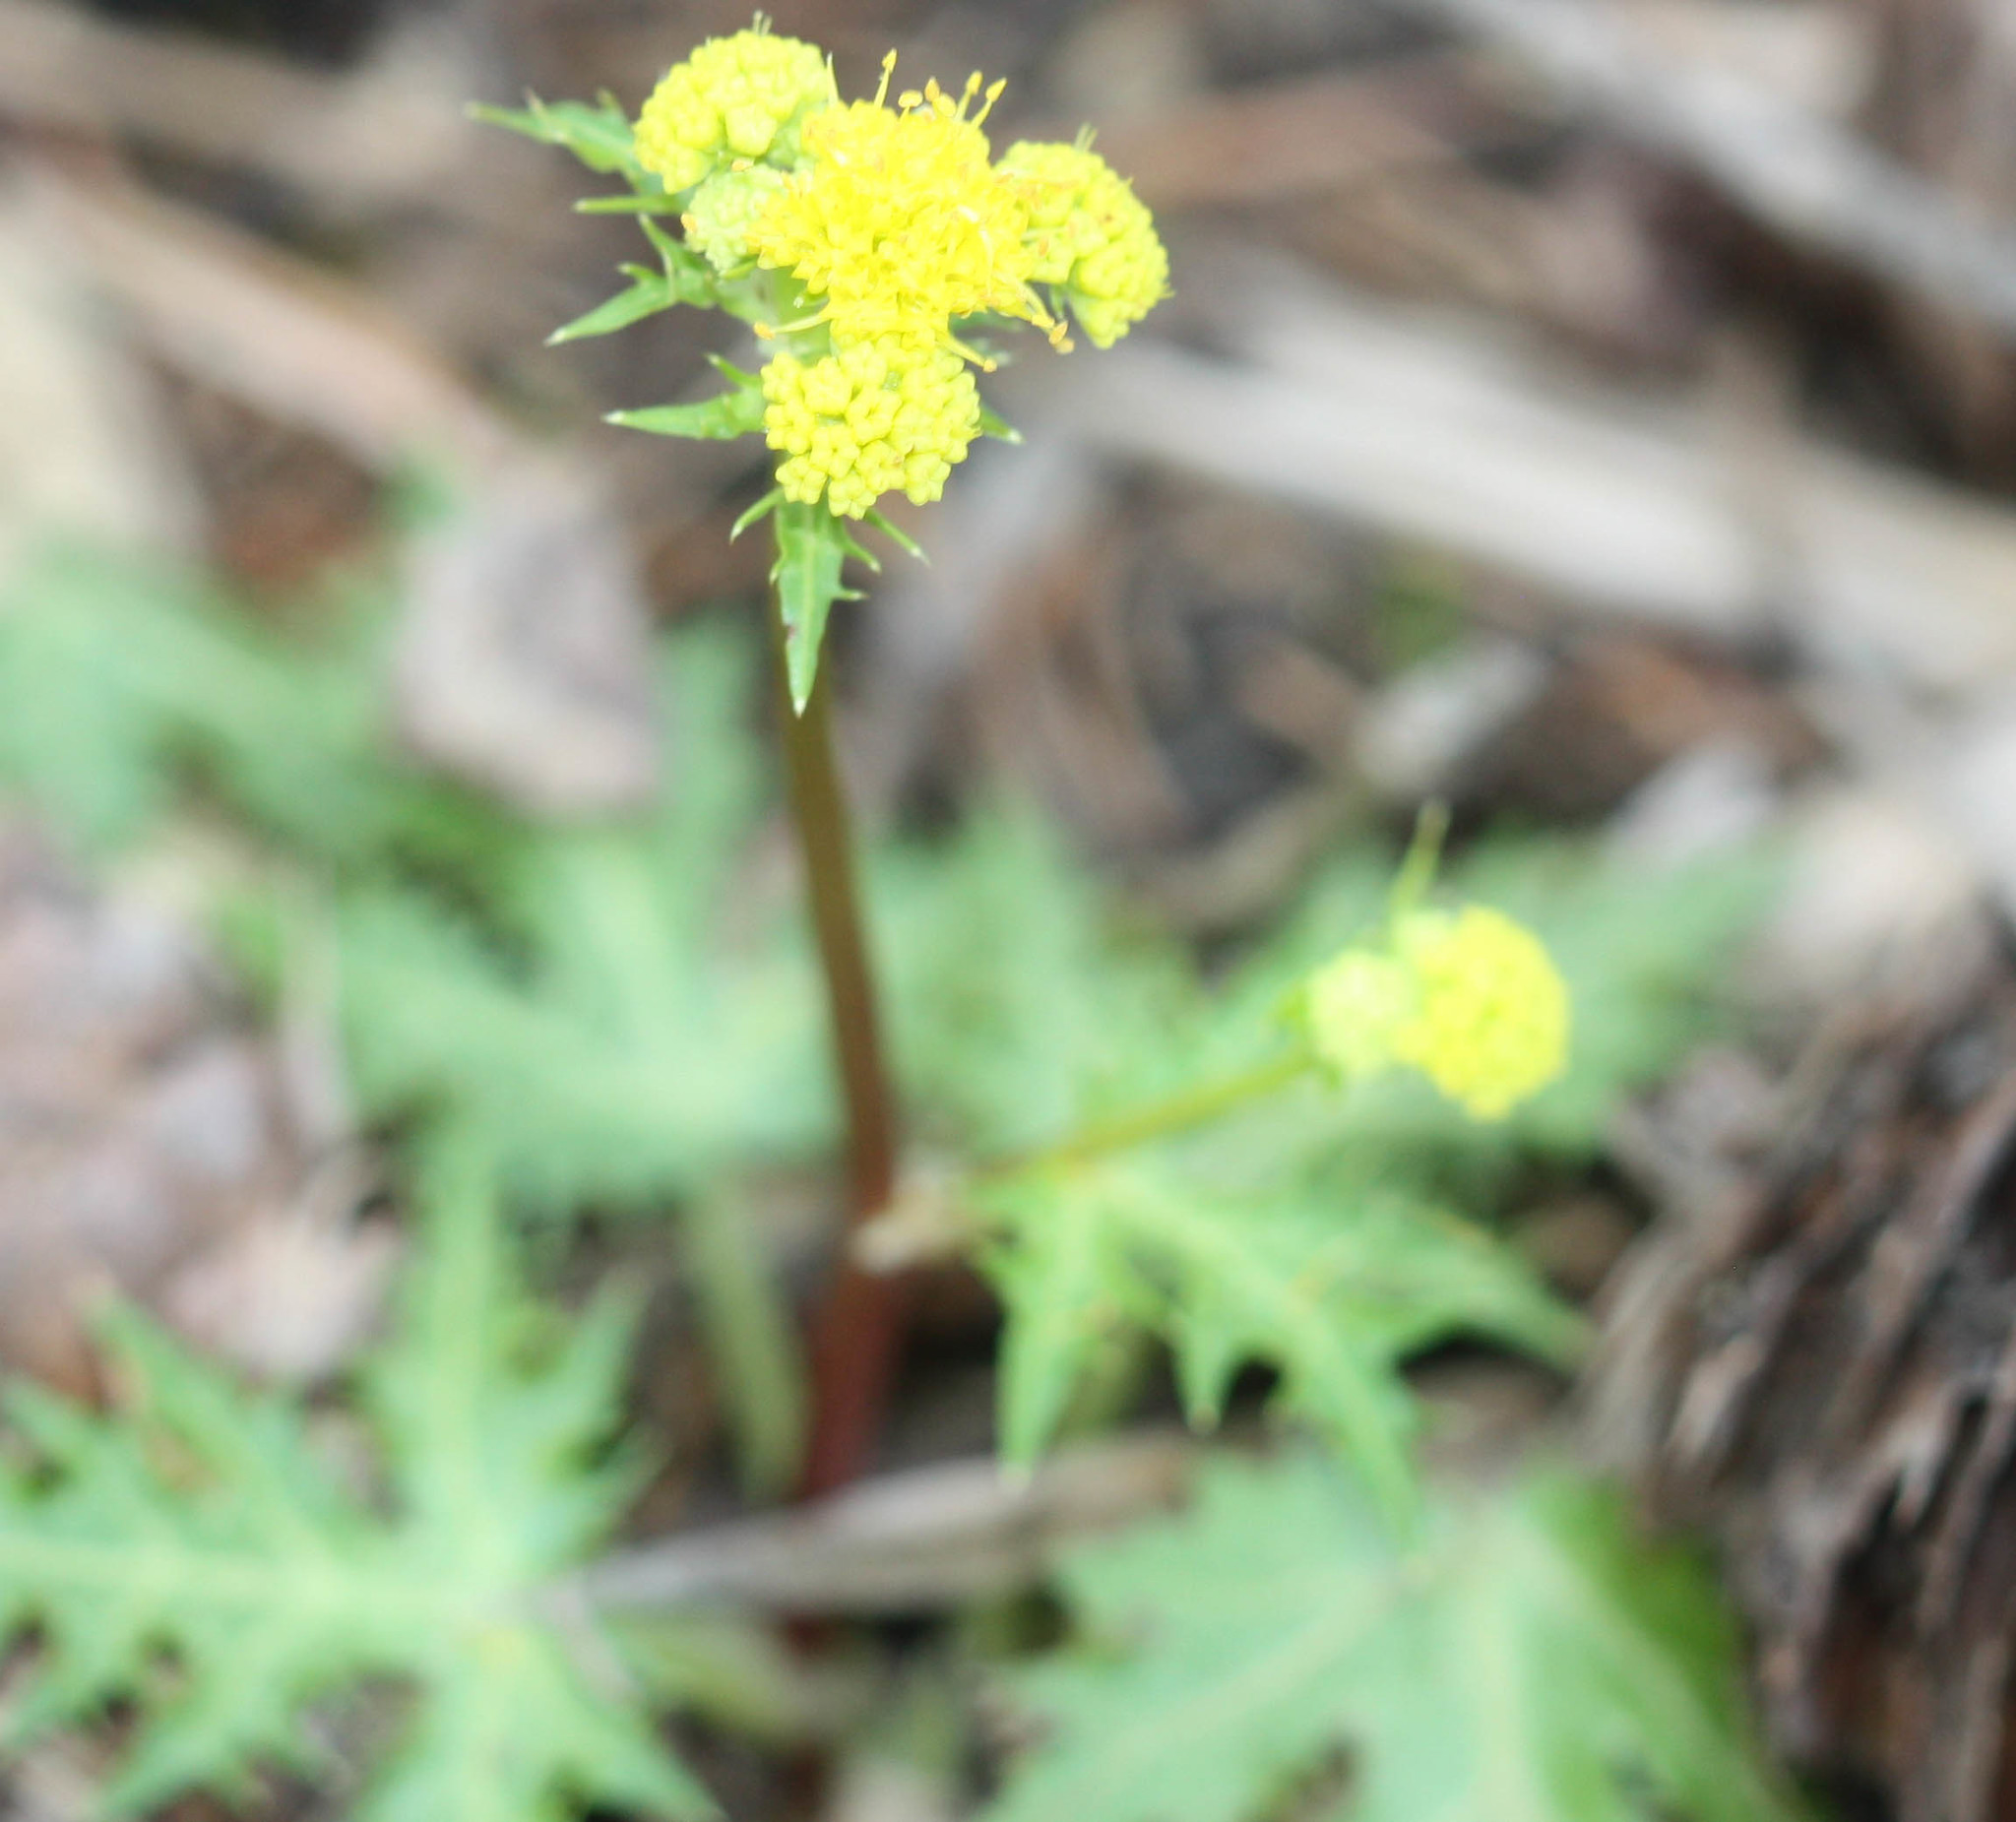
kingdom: Plantae
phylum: Tracheophyta
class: Magnoliopsida
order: Apiales
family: Apiaceae
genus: Sanicula
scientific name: Sanicula laciniata
